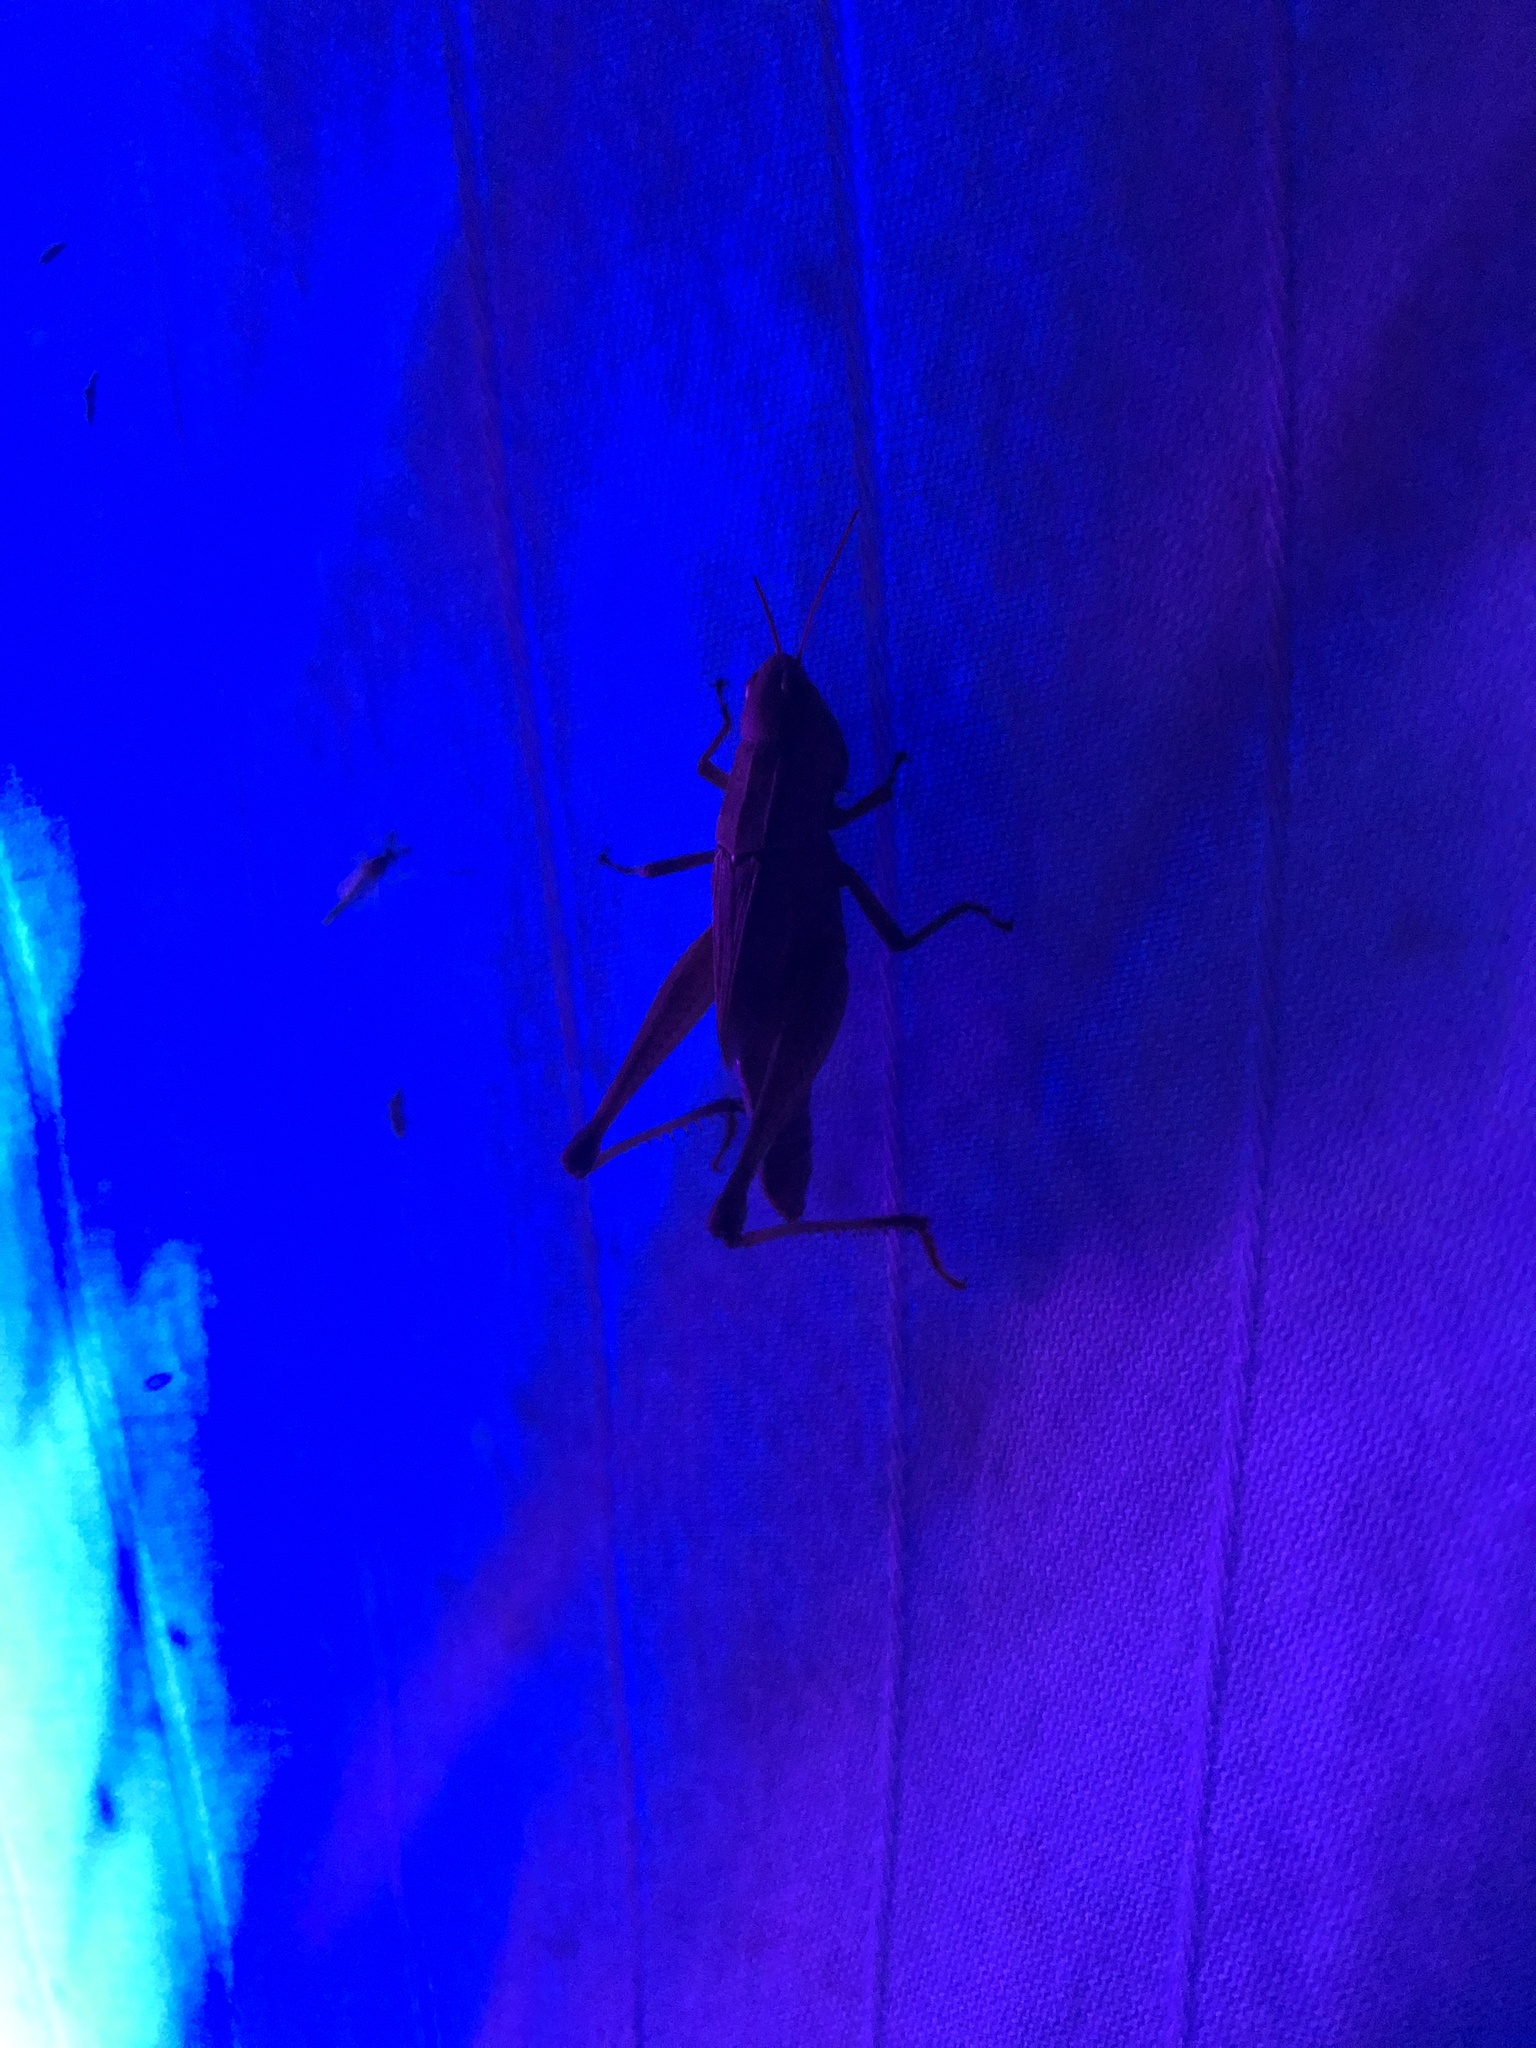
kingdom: Animalia
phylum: Arthropoda
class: Insecta
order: Orthoptera
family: Acrididae
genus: Dichromorpha
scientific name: Dichromorpha viridis
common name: Short-winged green grasshopper
